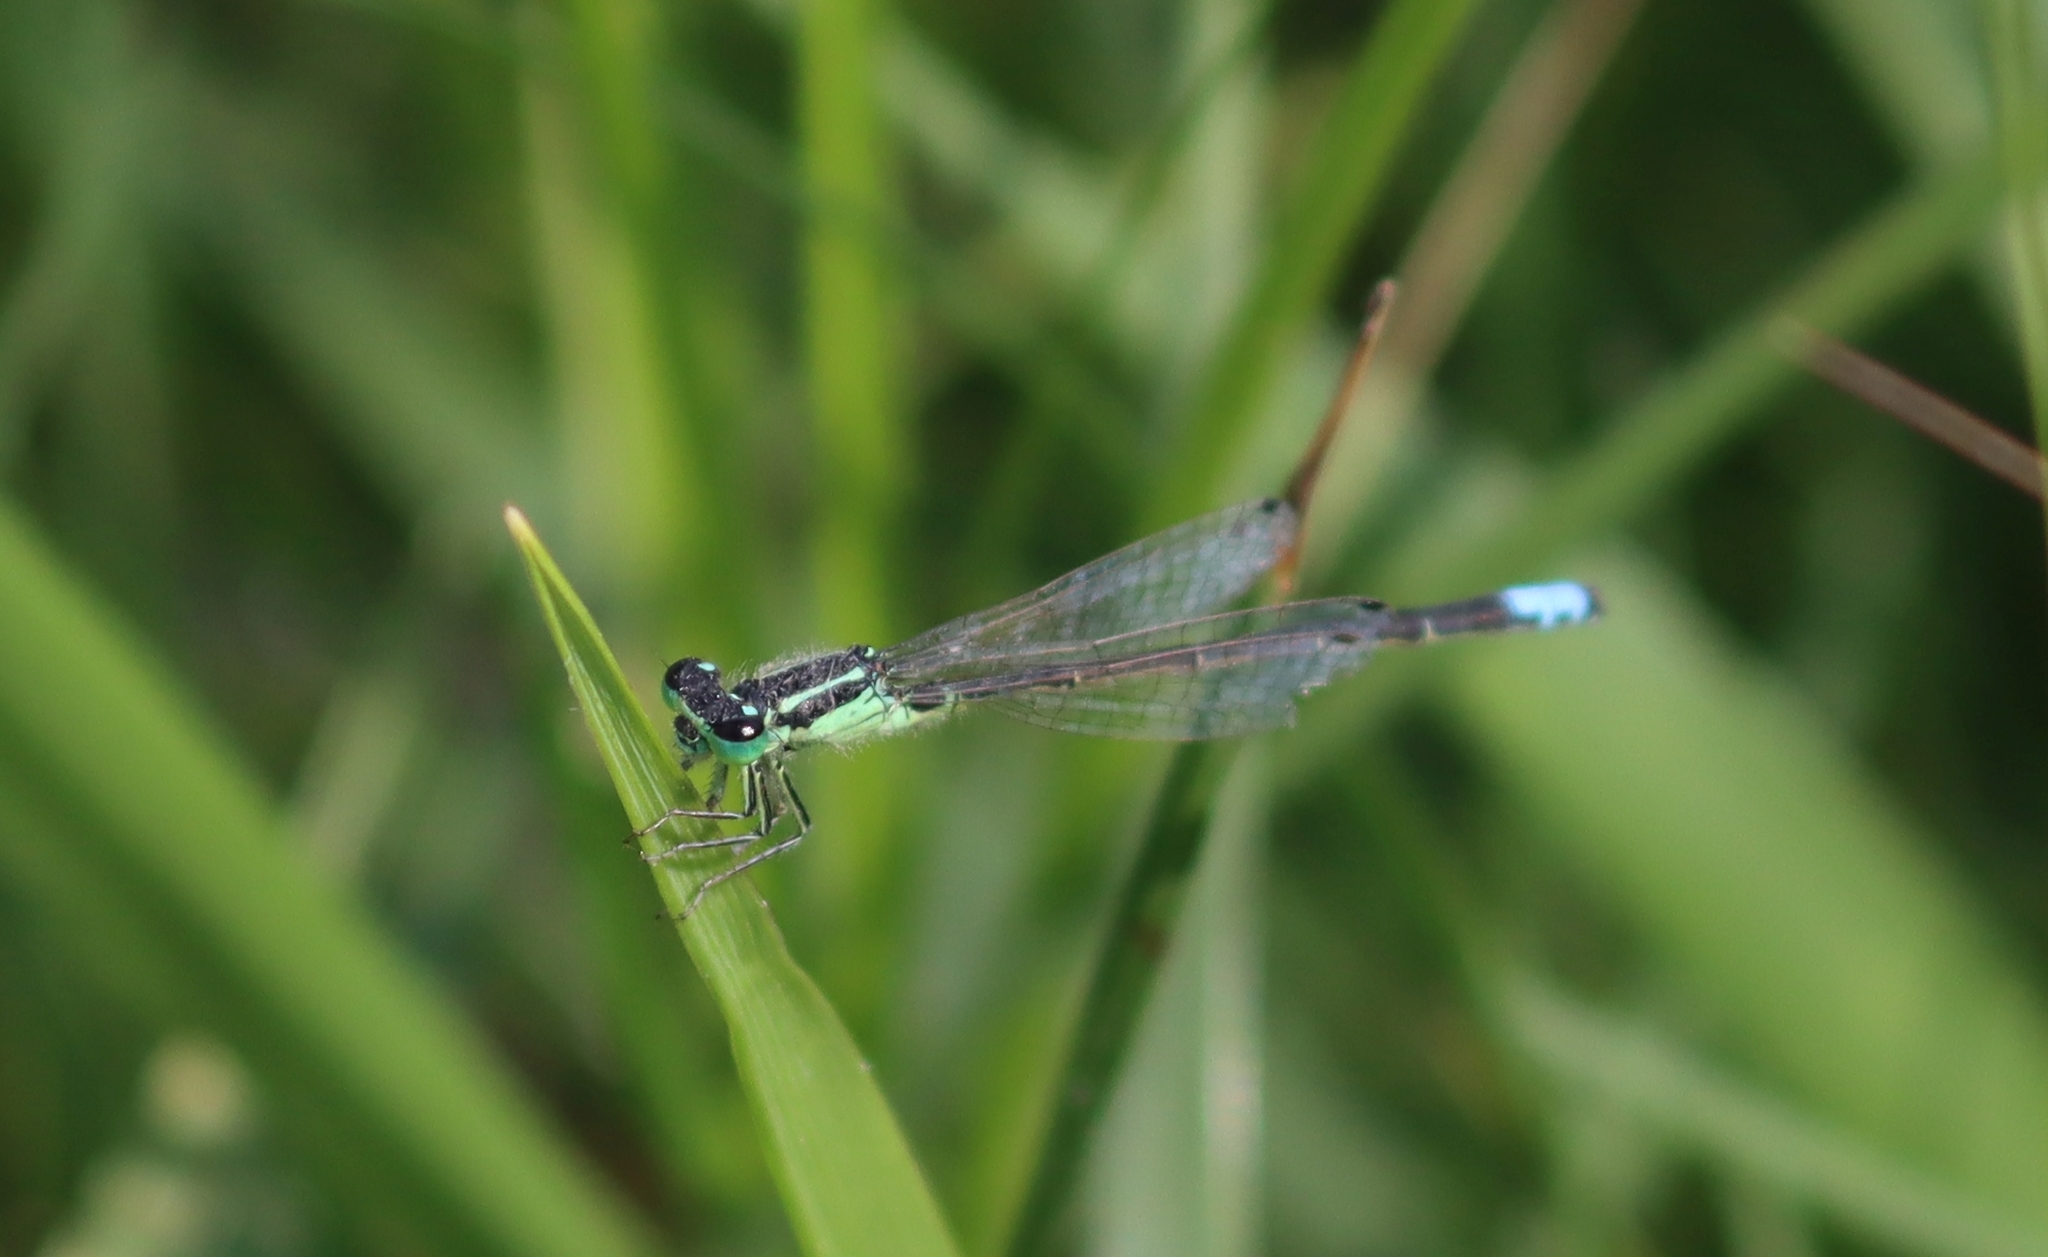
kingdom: Animalia
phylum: Arthropoda
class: Insecta
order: Odonata
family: Coenagrionidae
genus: Ischnura
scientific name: Ischnura verticalis
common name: Eastern forktail
